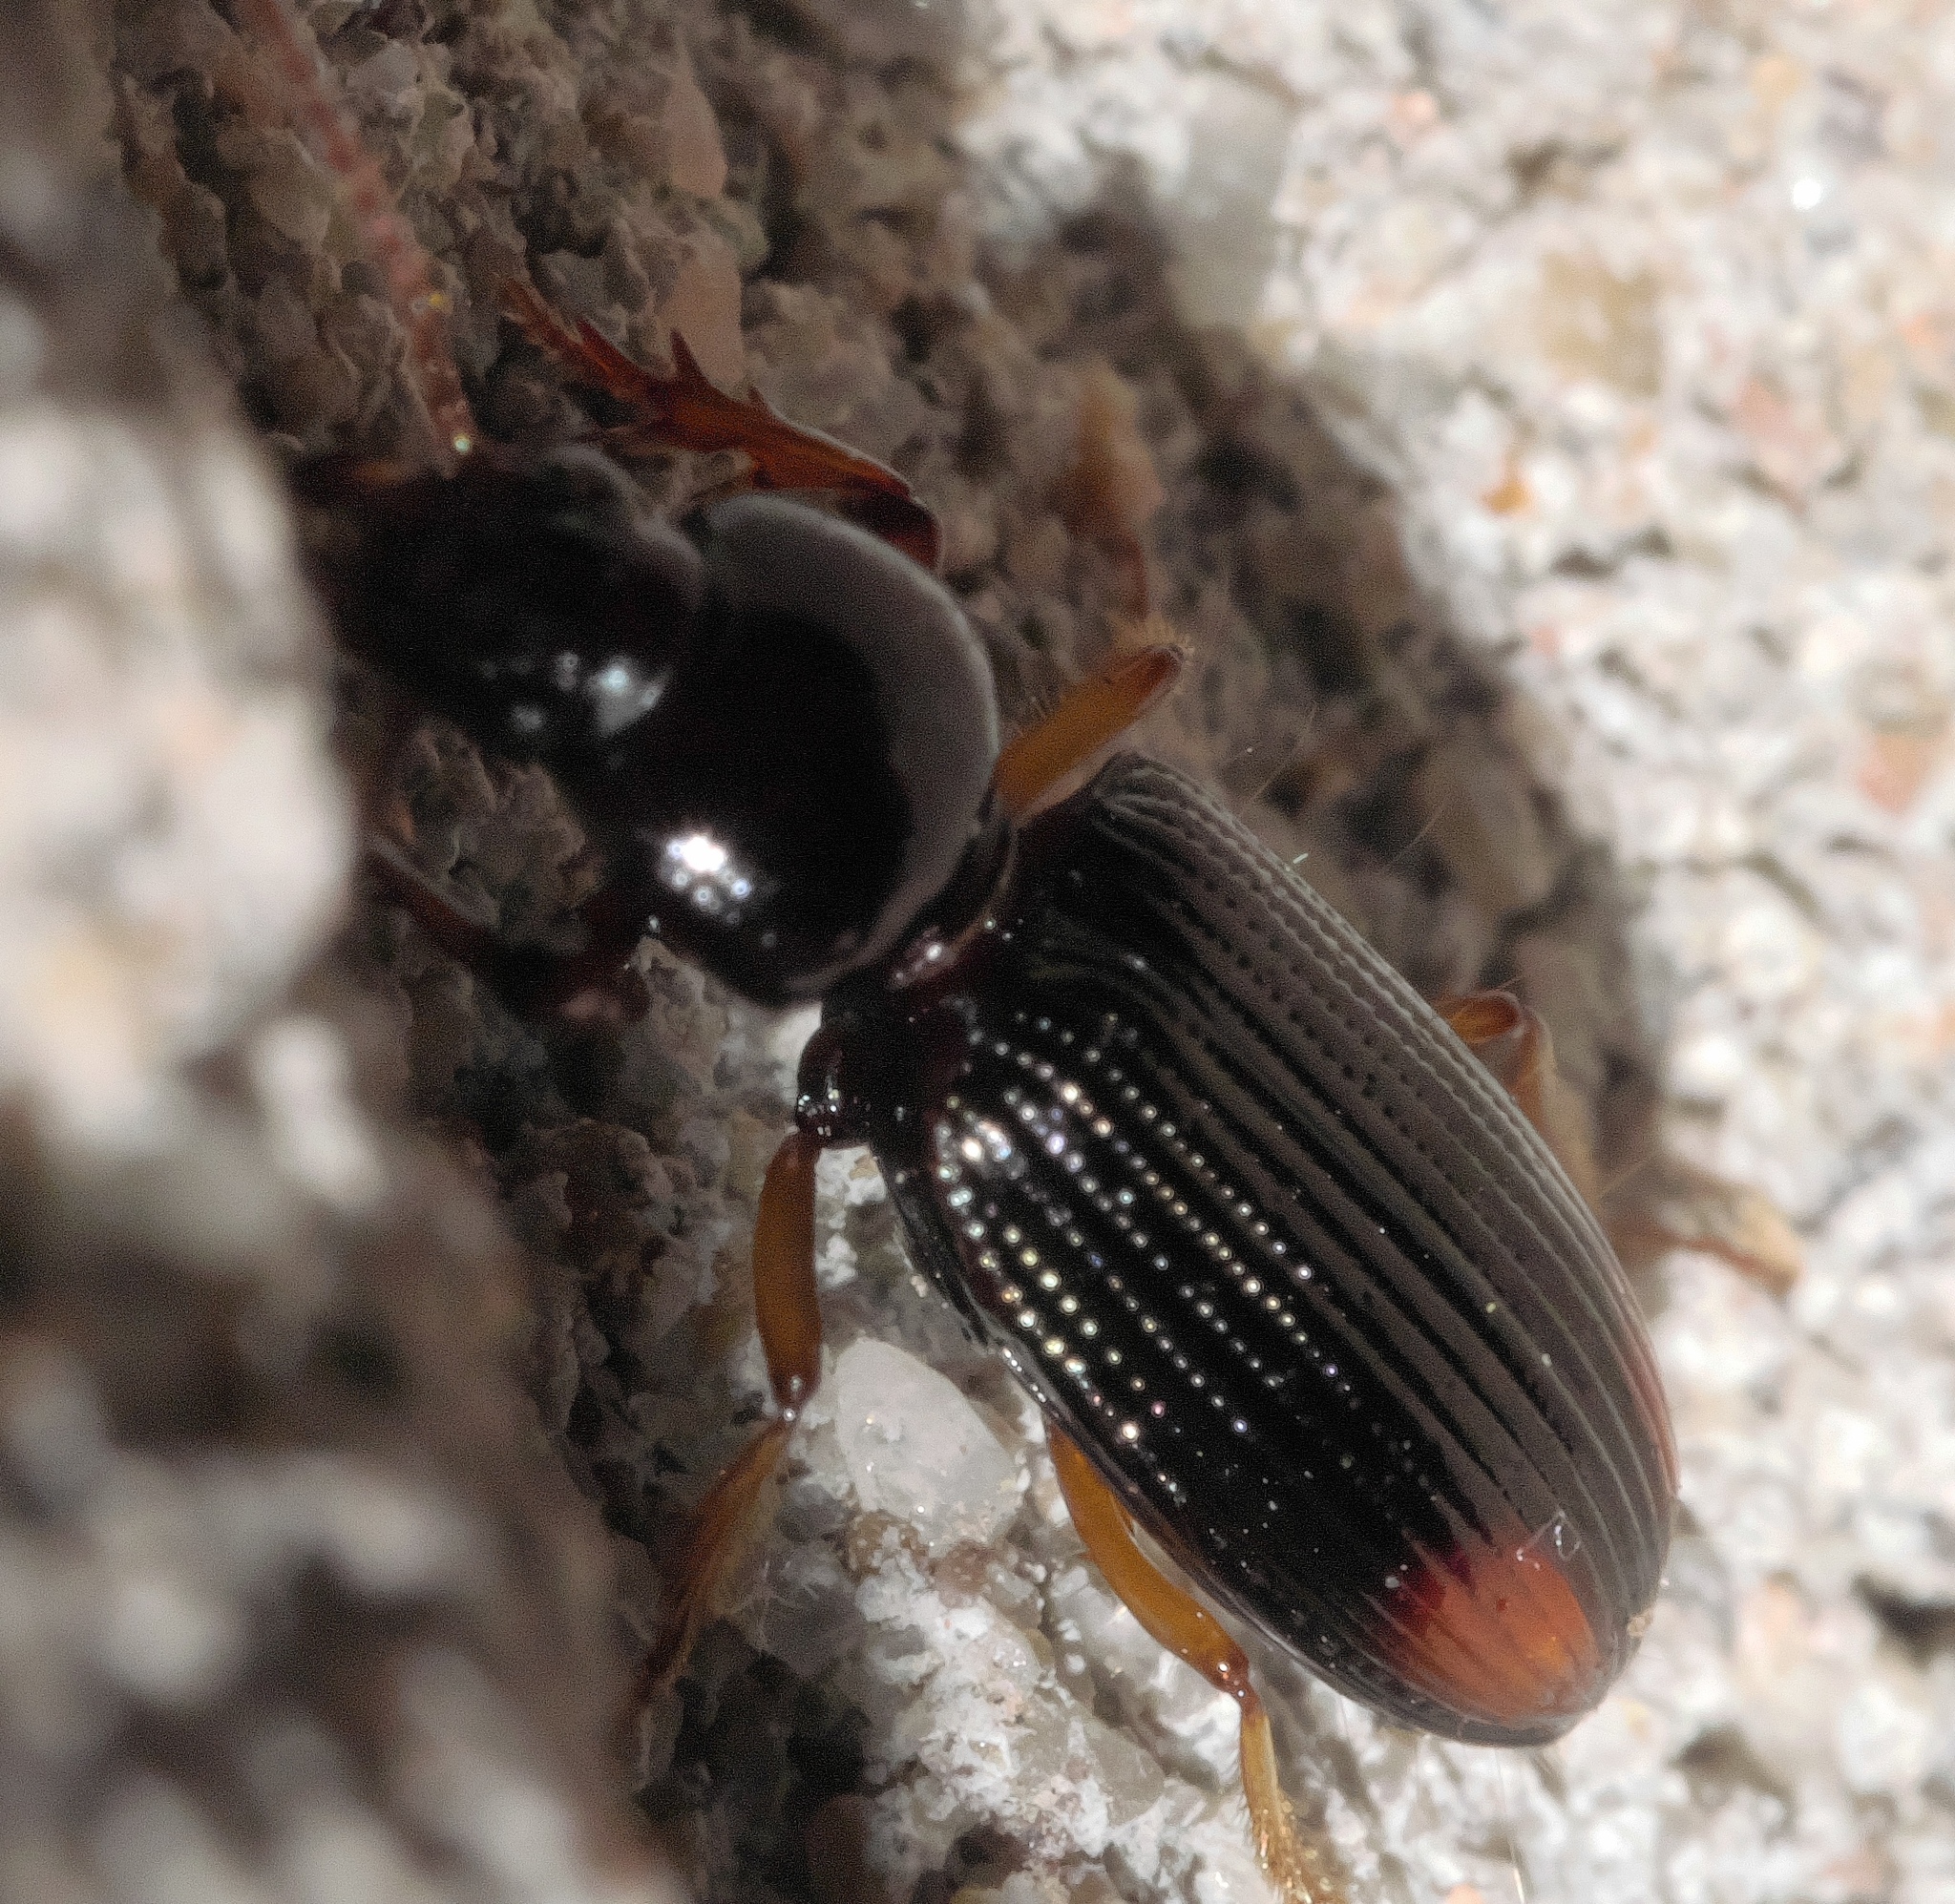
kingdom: Animalia
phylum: Arthropoda
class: Insecta
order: Coleoptera
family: Carabidae
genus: Aspidoglossa
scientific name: Aspidoglossa subangulata
